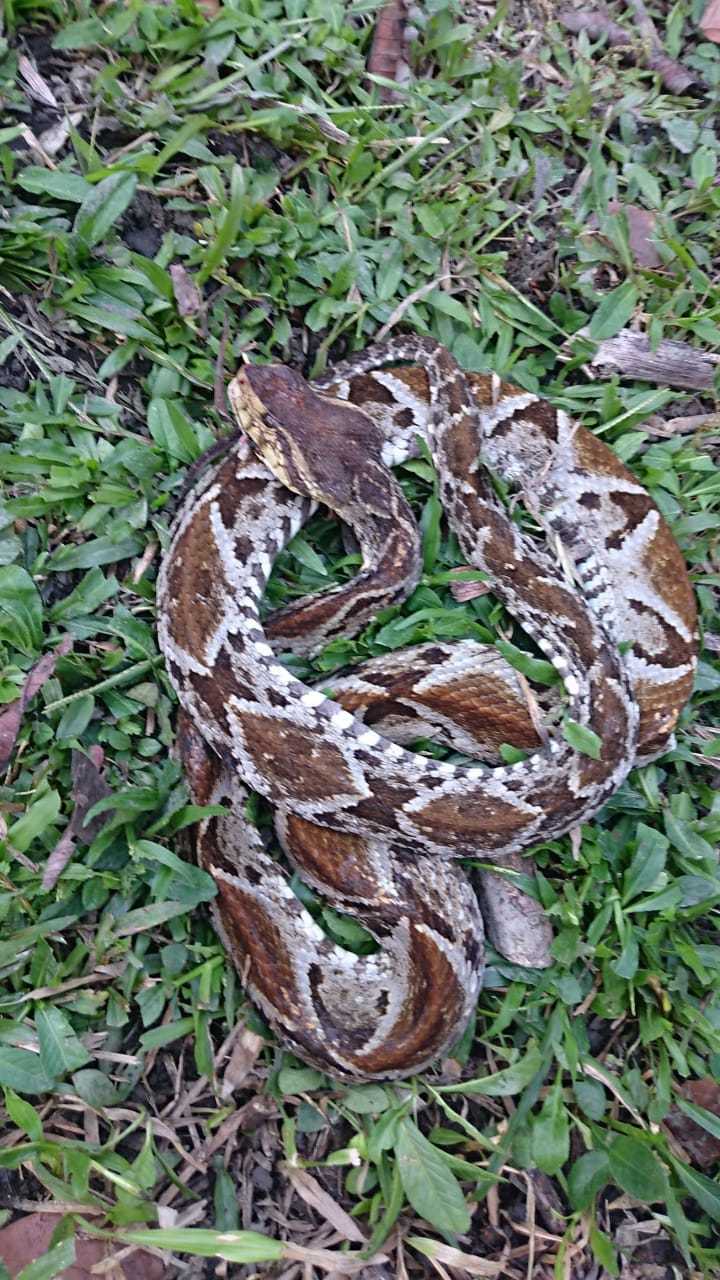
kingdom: Animalia
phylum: Chordata
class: Squamata
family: Viperidae
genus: Bothrops
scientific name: Bothrops asper
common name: Terciopelo
